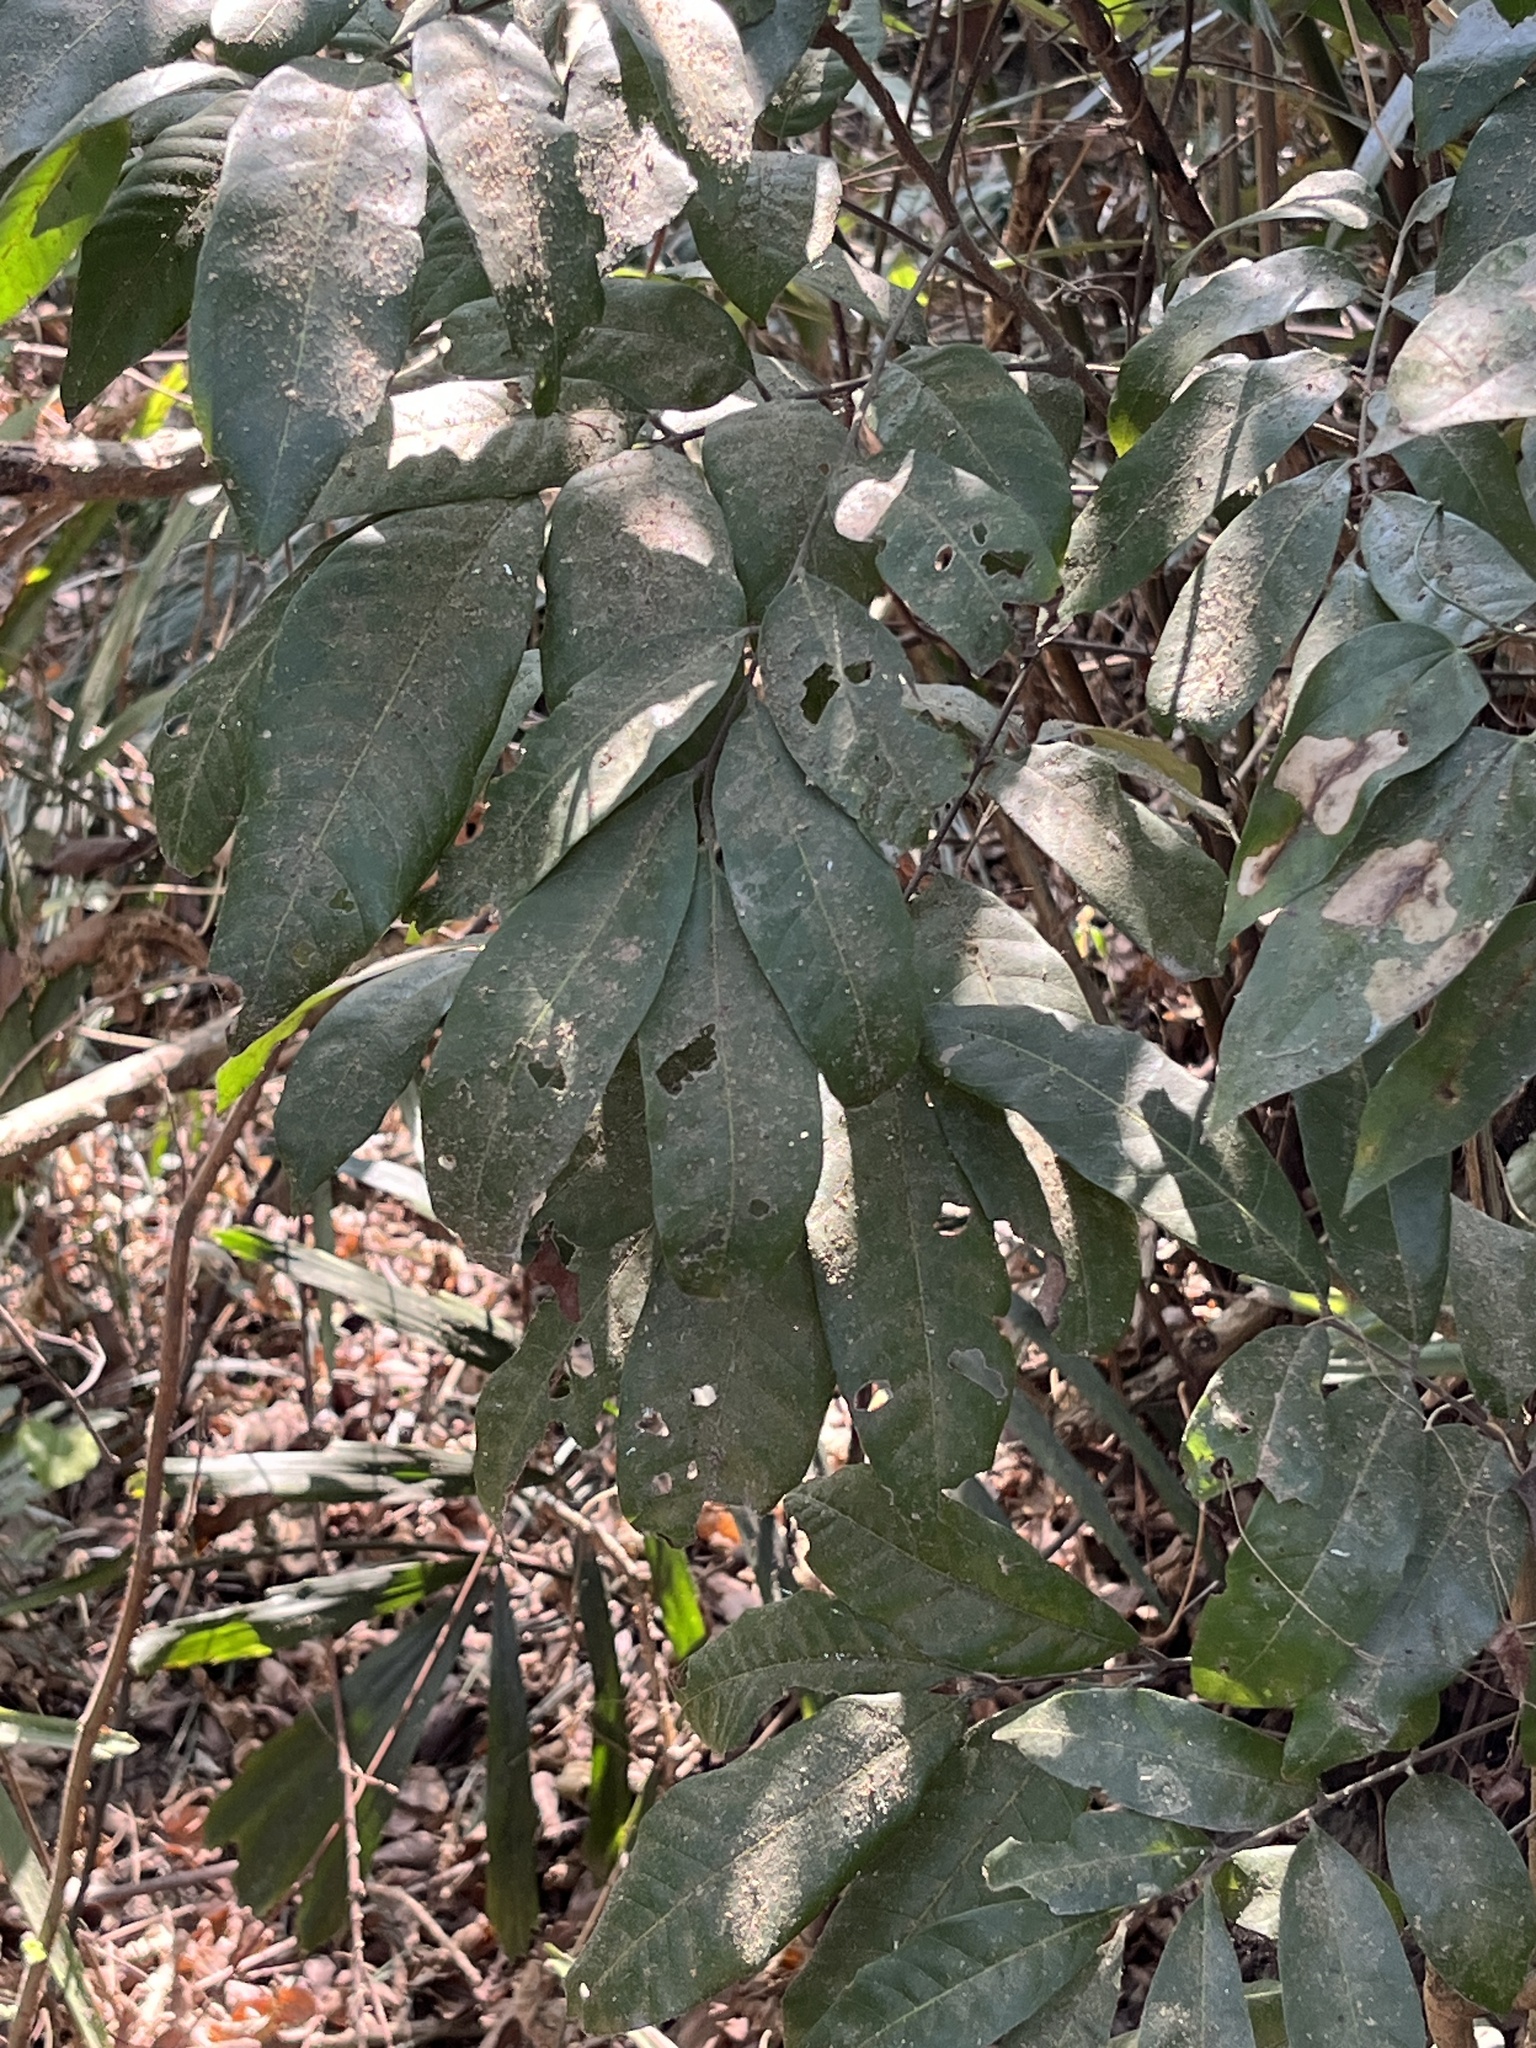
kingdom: Plantae
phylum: Tracheophyta
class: Magnoliopsida
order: Sapindales
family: Sapindaceae
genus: Dimocarpus
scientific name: Dimocarpus longan
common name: Longan
